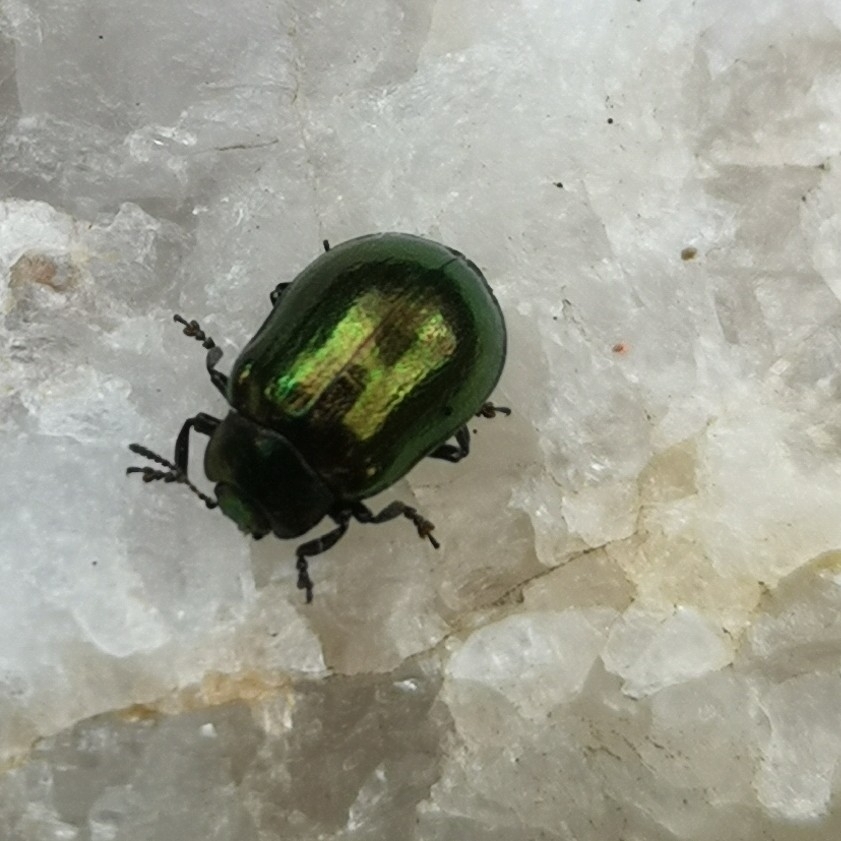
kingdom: Animalia
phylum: Arthropoda
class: Insecta
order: Coleoptera
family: Chrysomelidae
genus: Plagiosterna
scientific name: Plagiosterna aenea
